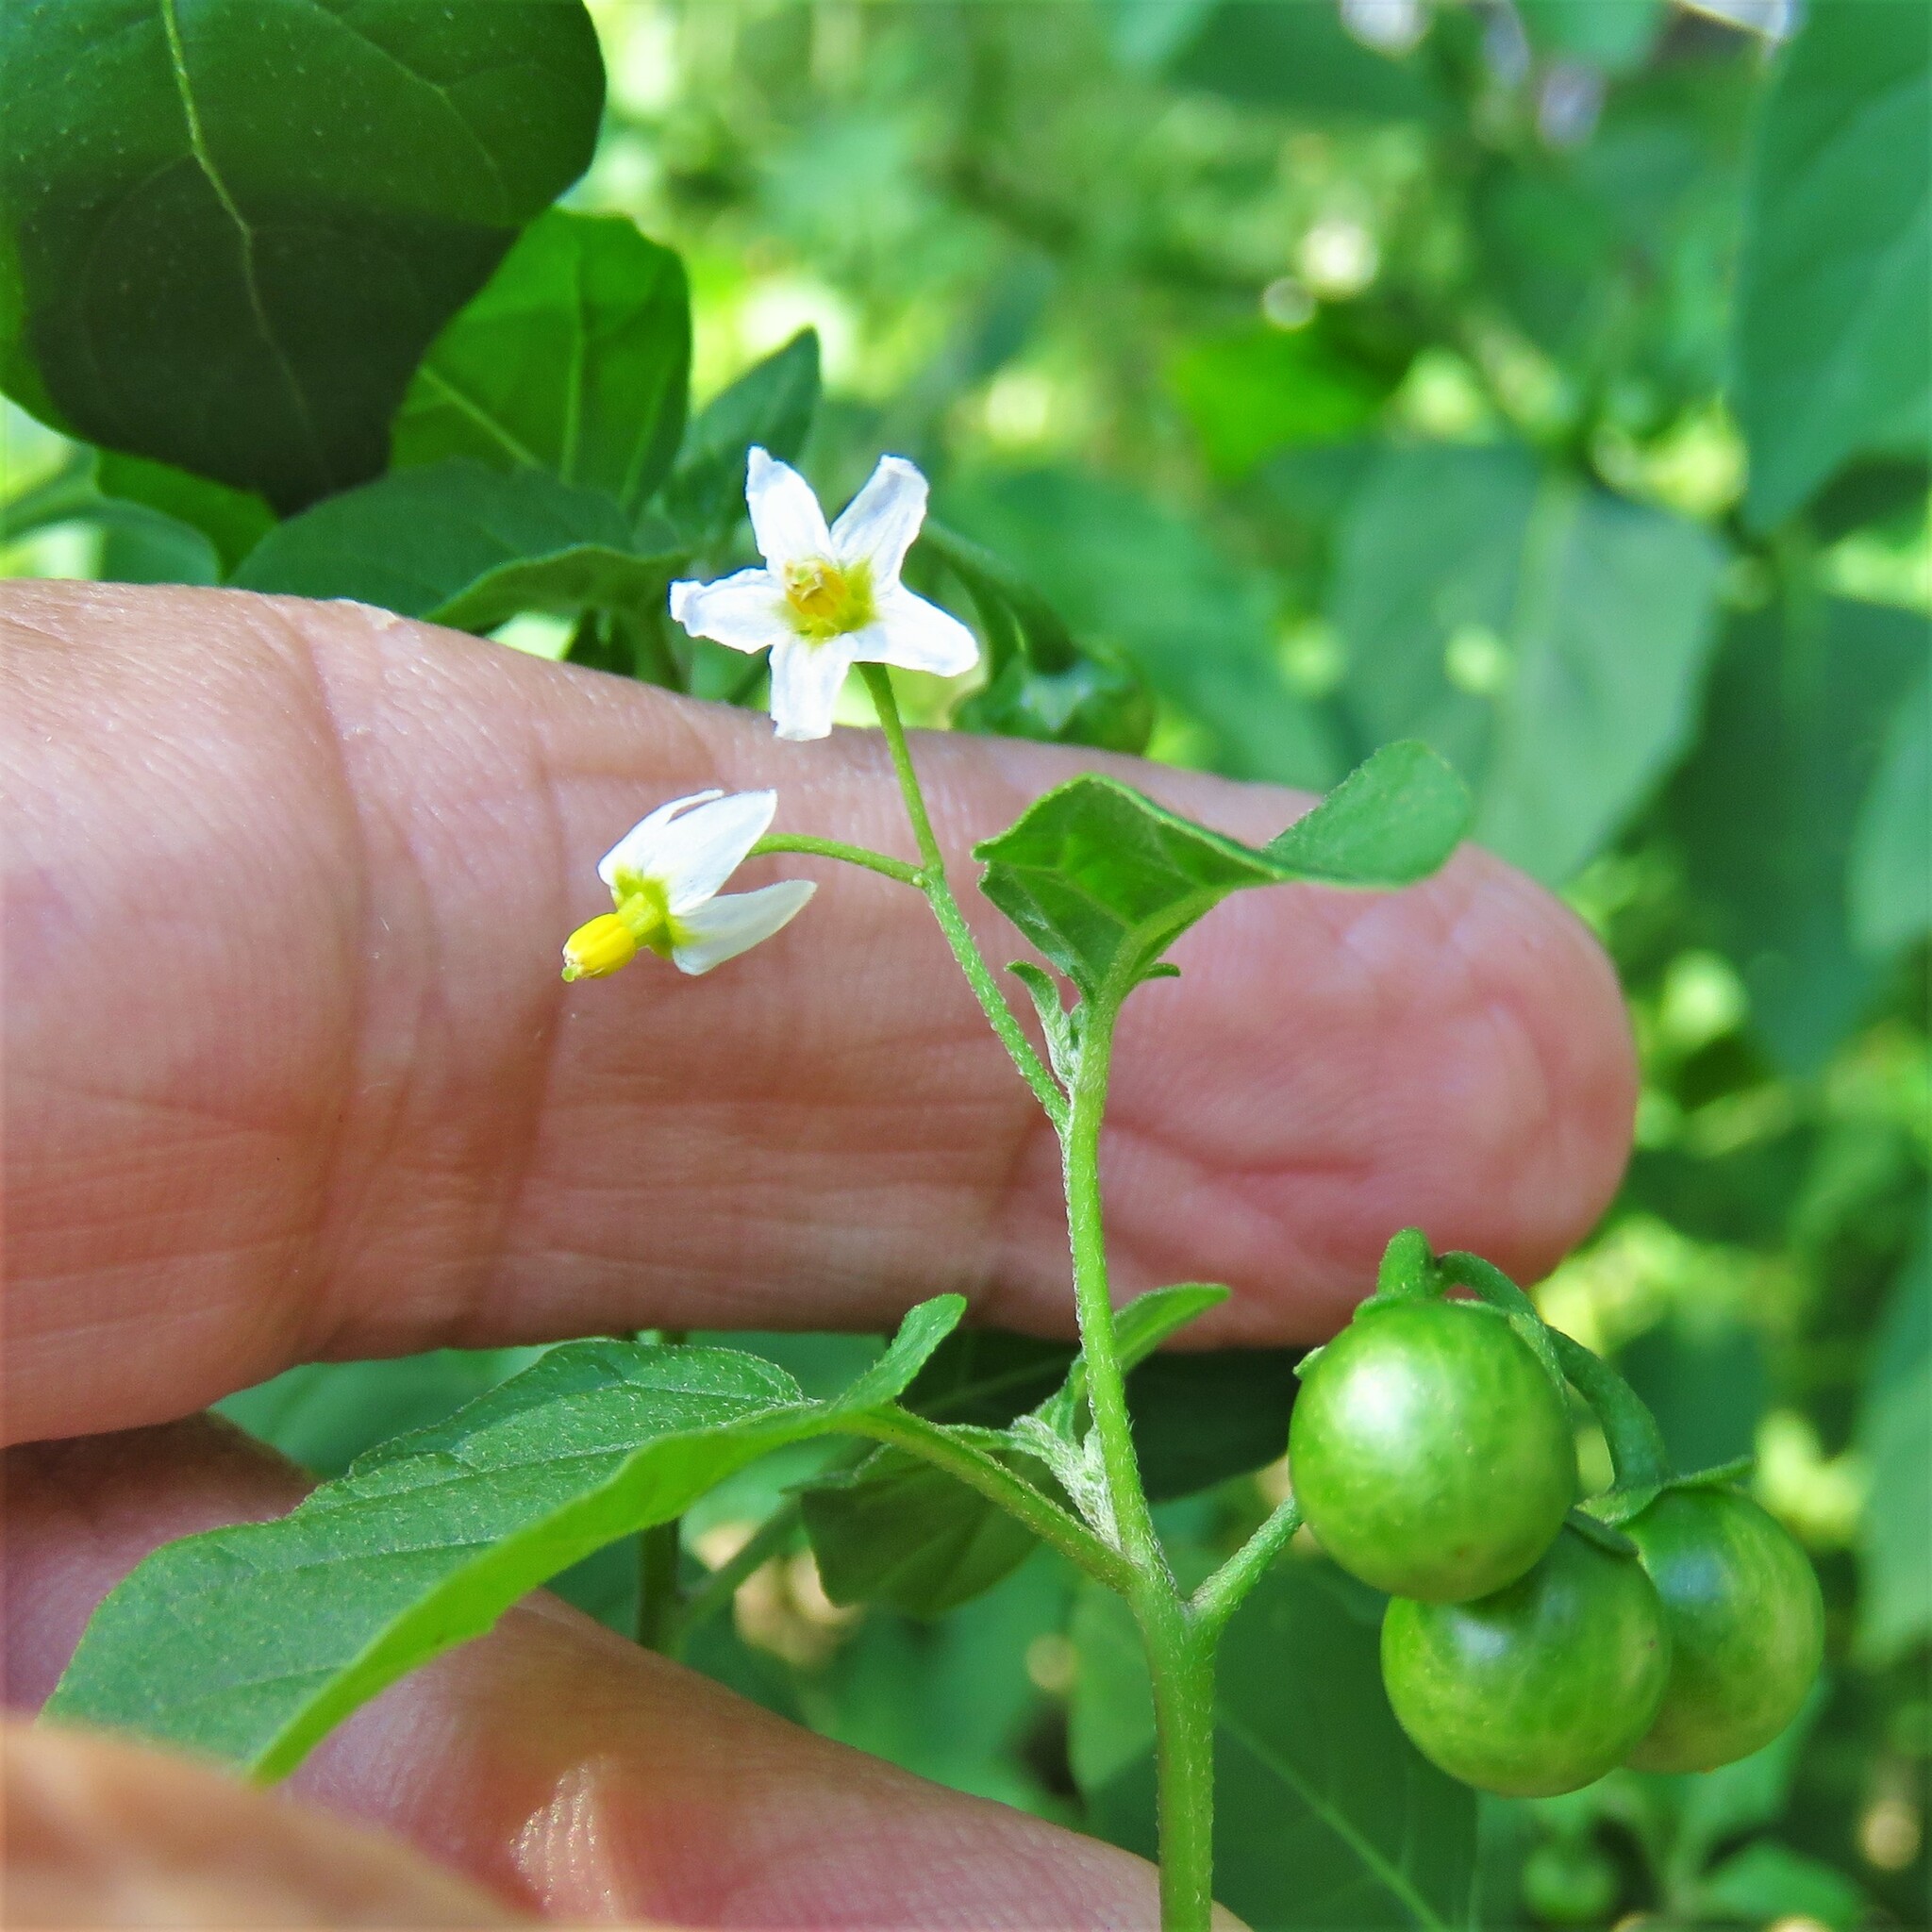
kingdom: Plantae
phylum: Tracheophyta
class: Magnoliopsida
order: Solanales
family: Solanaceae
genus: Solanum
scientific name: Solanum emulans
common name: Eastern black nightshade
